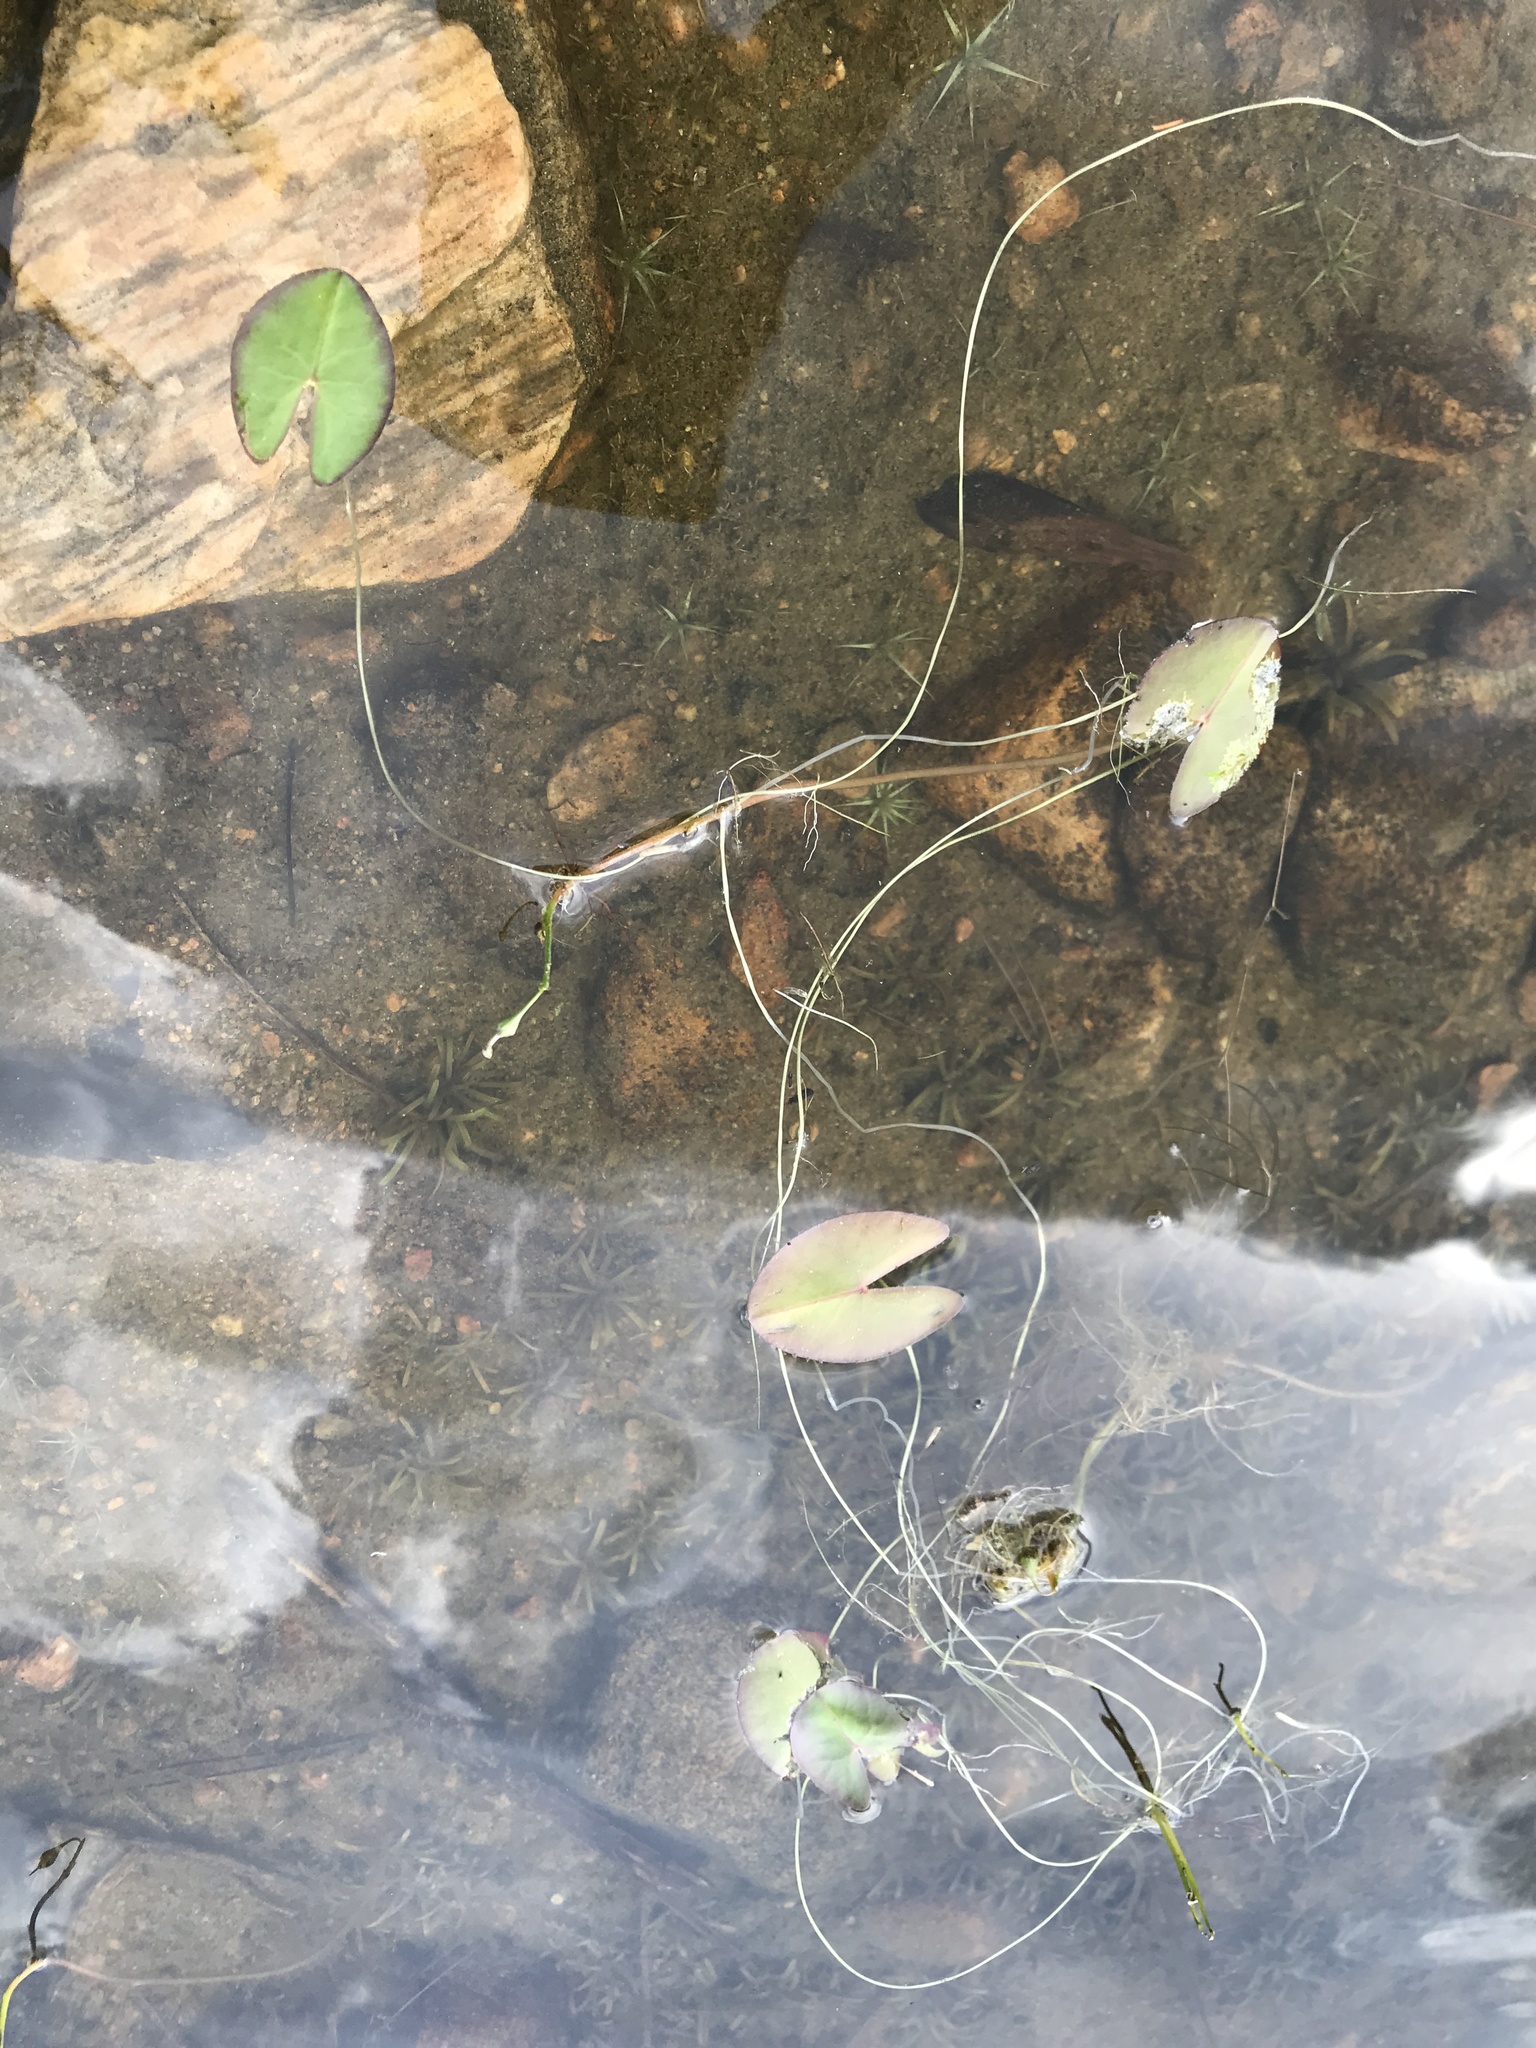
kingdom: Plantae
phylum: Tracheophyta
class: Magnoliopsida
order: Nymphaeales
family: Nymphaeaceae
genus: Nymphaea
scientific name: Nymphaea odorata
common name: Fragrant water-lily
